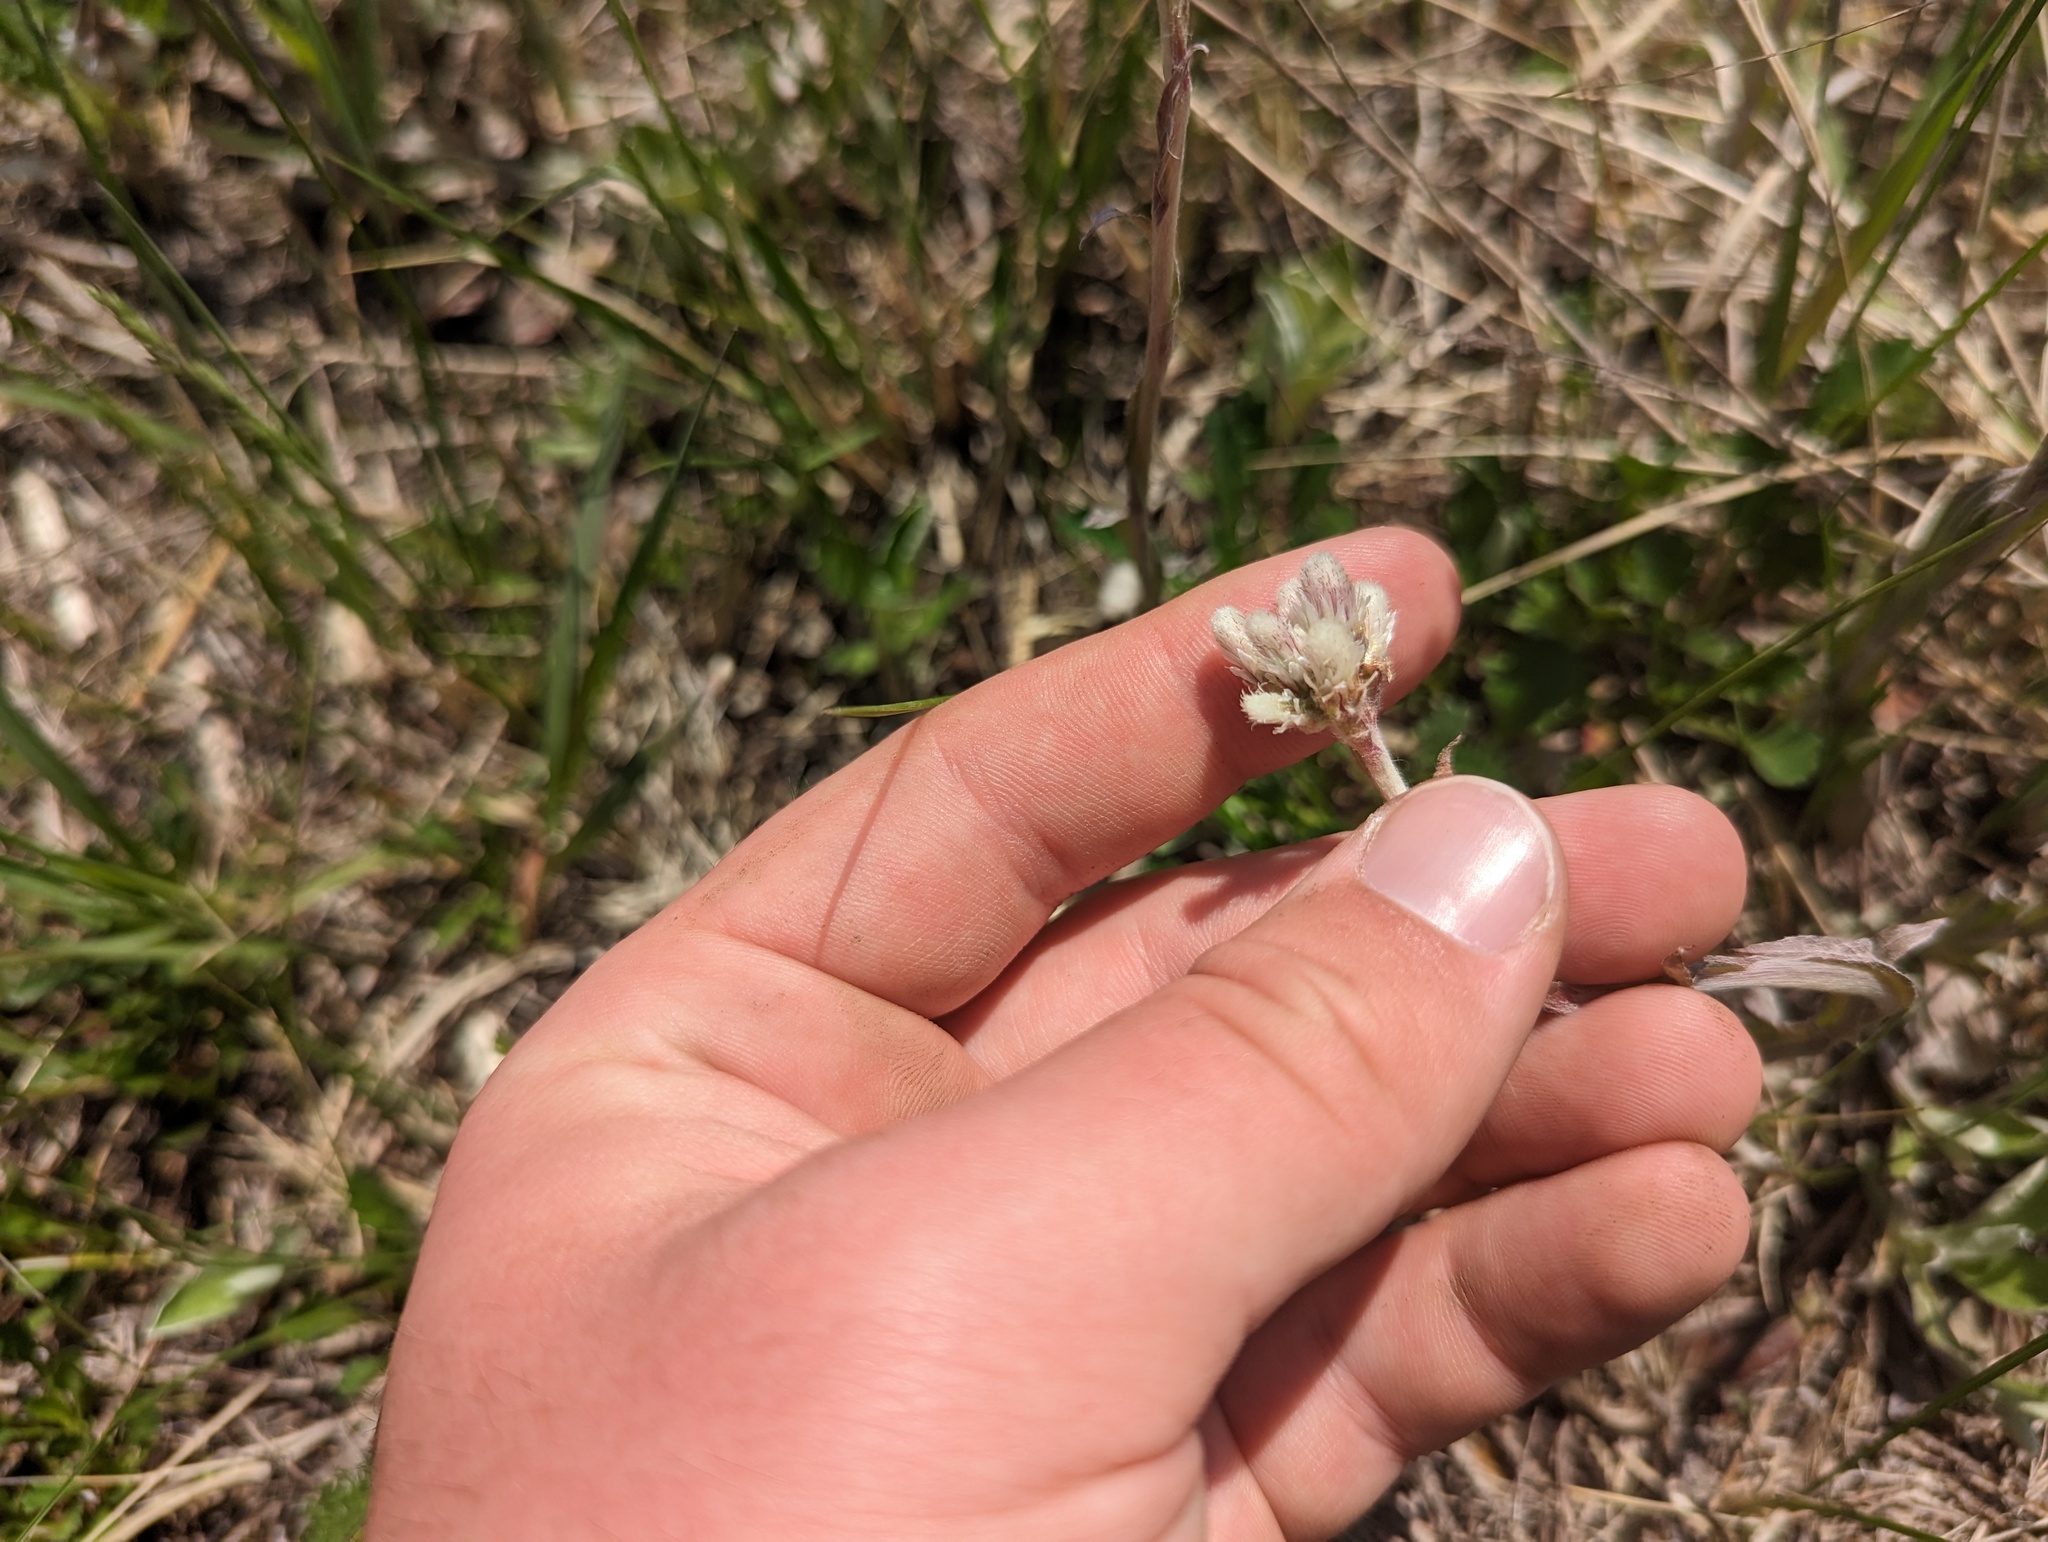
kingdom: Plantae
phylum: Tracheophyta
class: Magnoliopsida
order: Asterales
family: Asteraceae
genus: Antennaria
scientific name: Antennaria neglecta
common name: Field pussytoes
